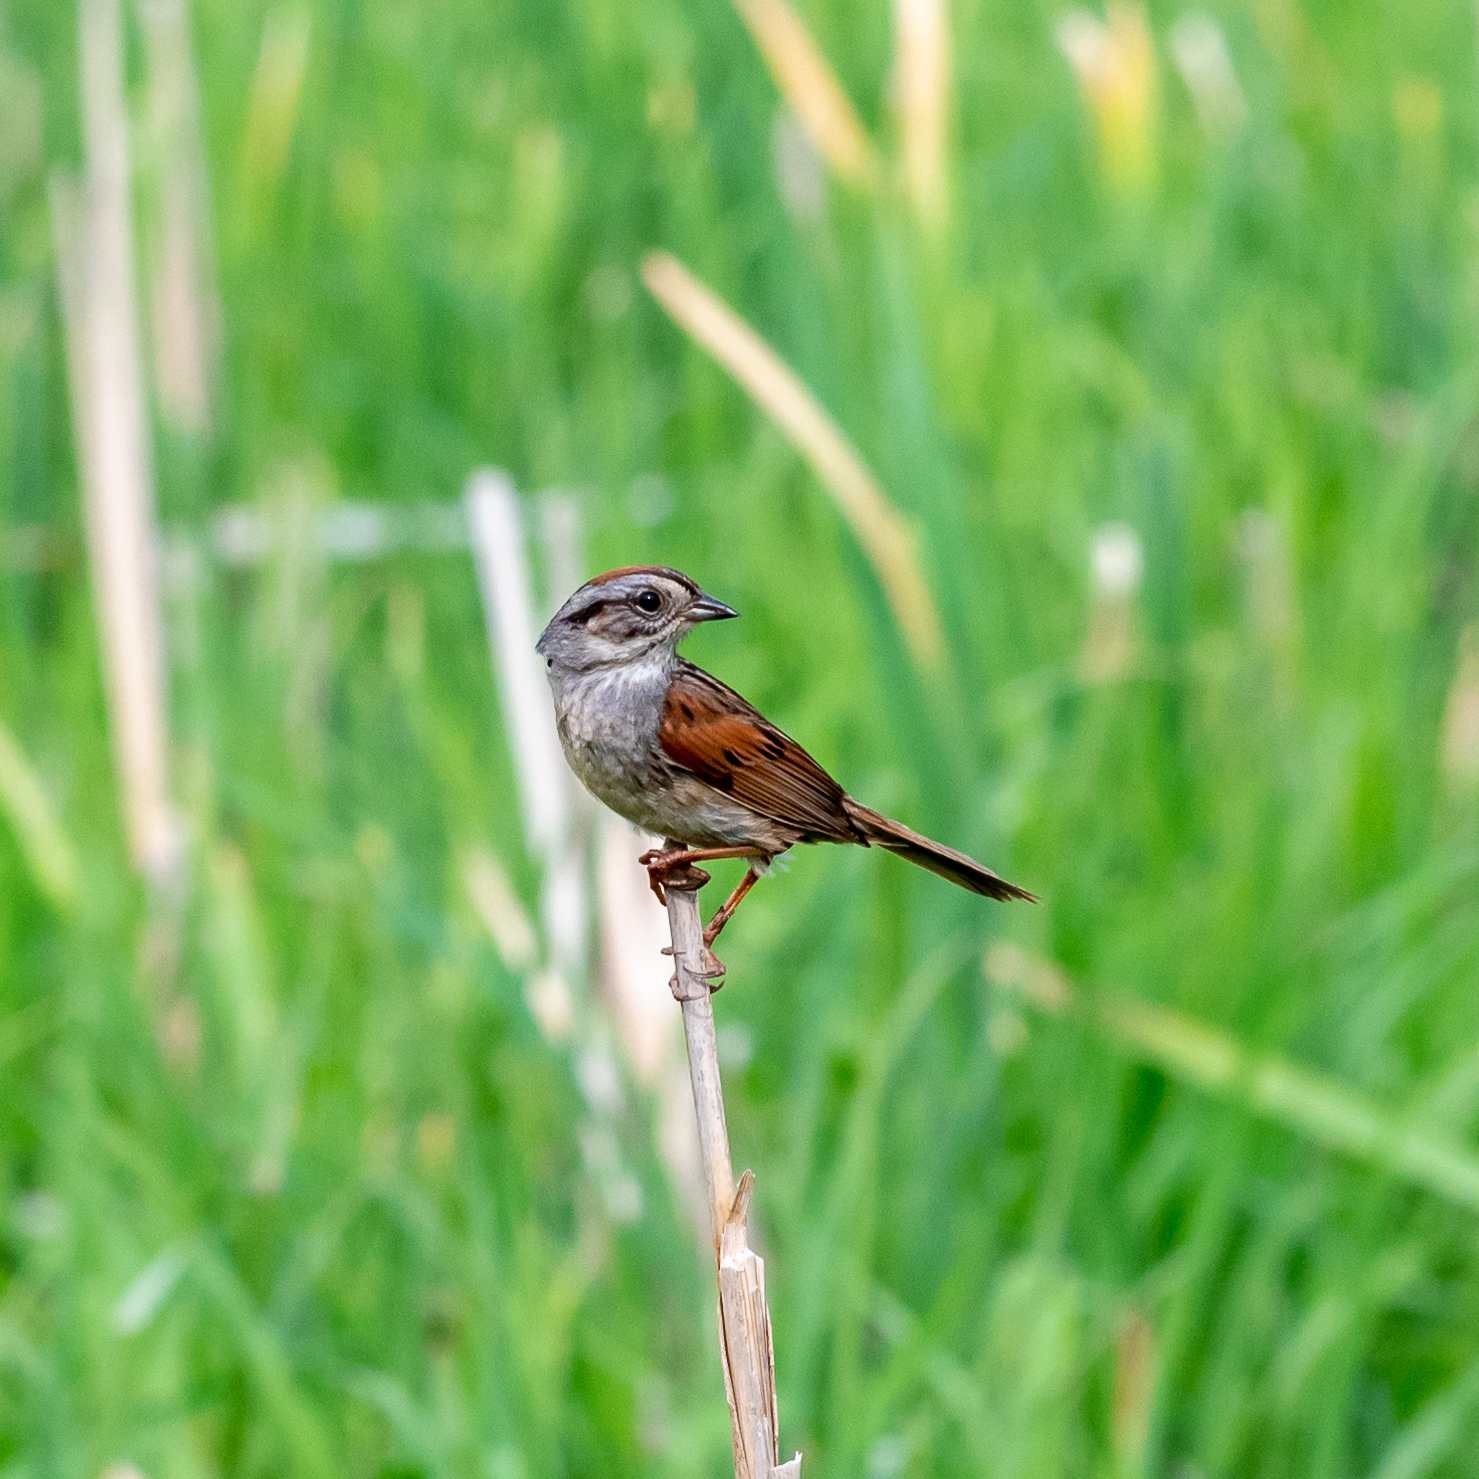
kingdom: Animalia
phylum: Chordata
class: Aves
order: Passeriformes
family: Passerellidae
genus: Melospiza
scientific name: Melospiza georgiana
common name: Swamp sparrow
